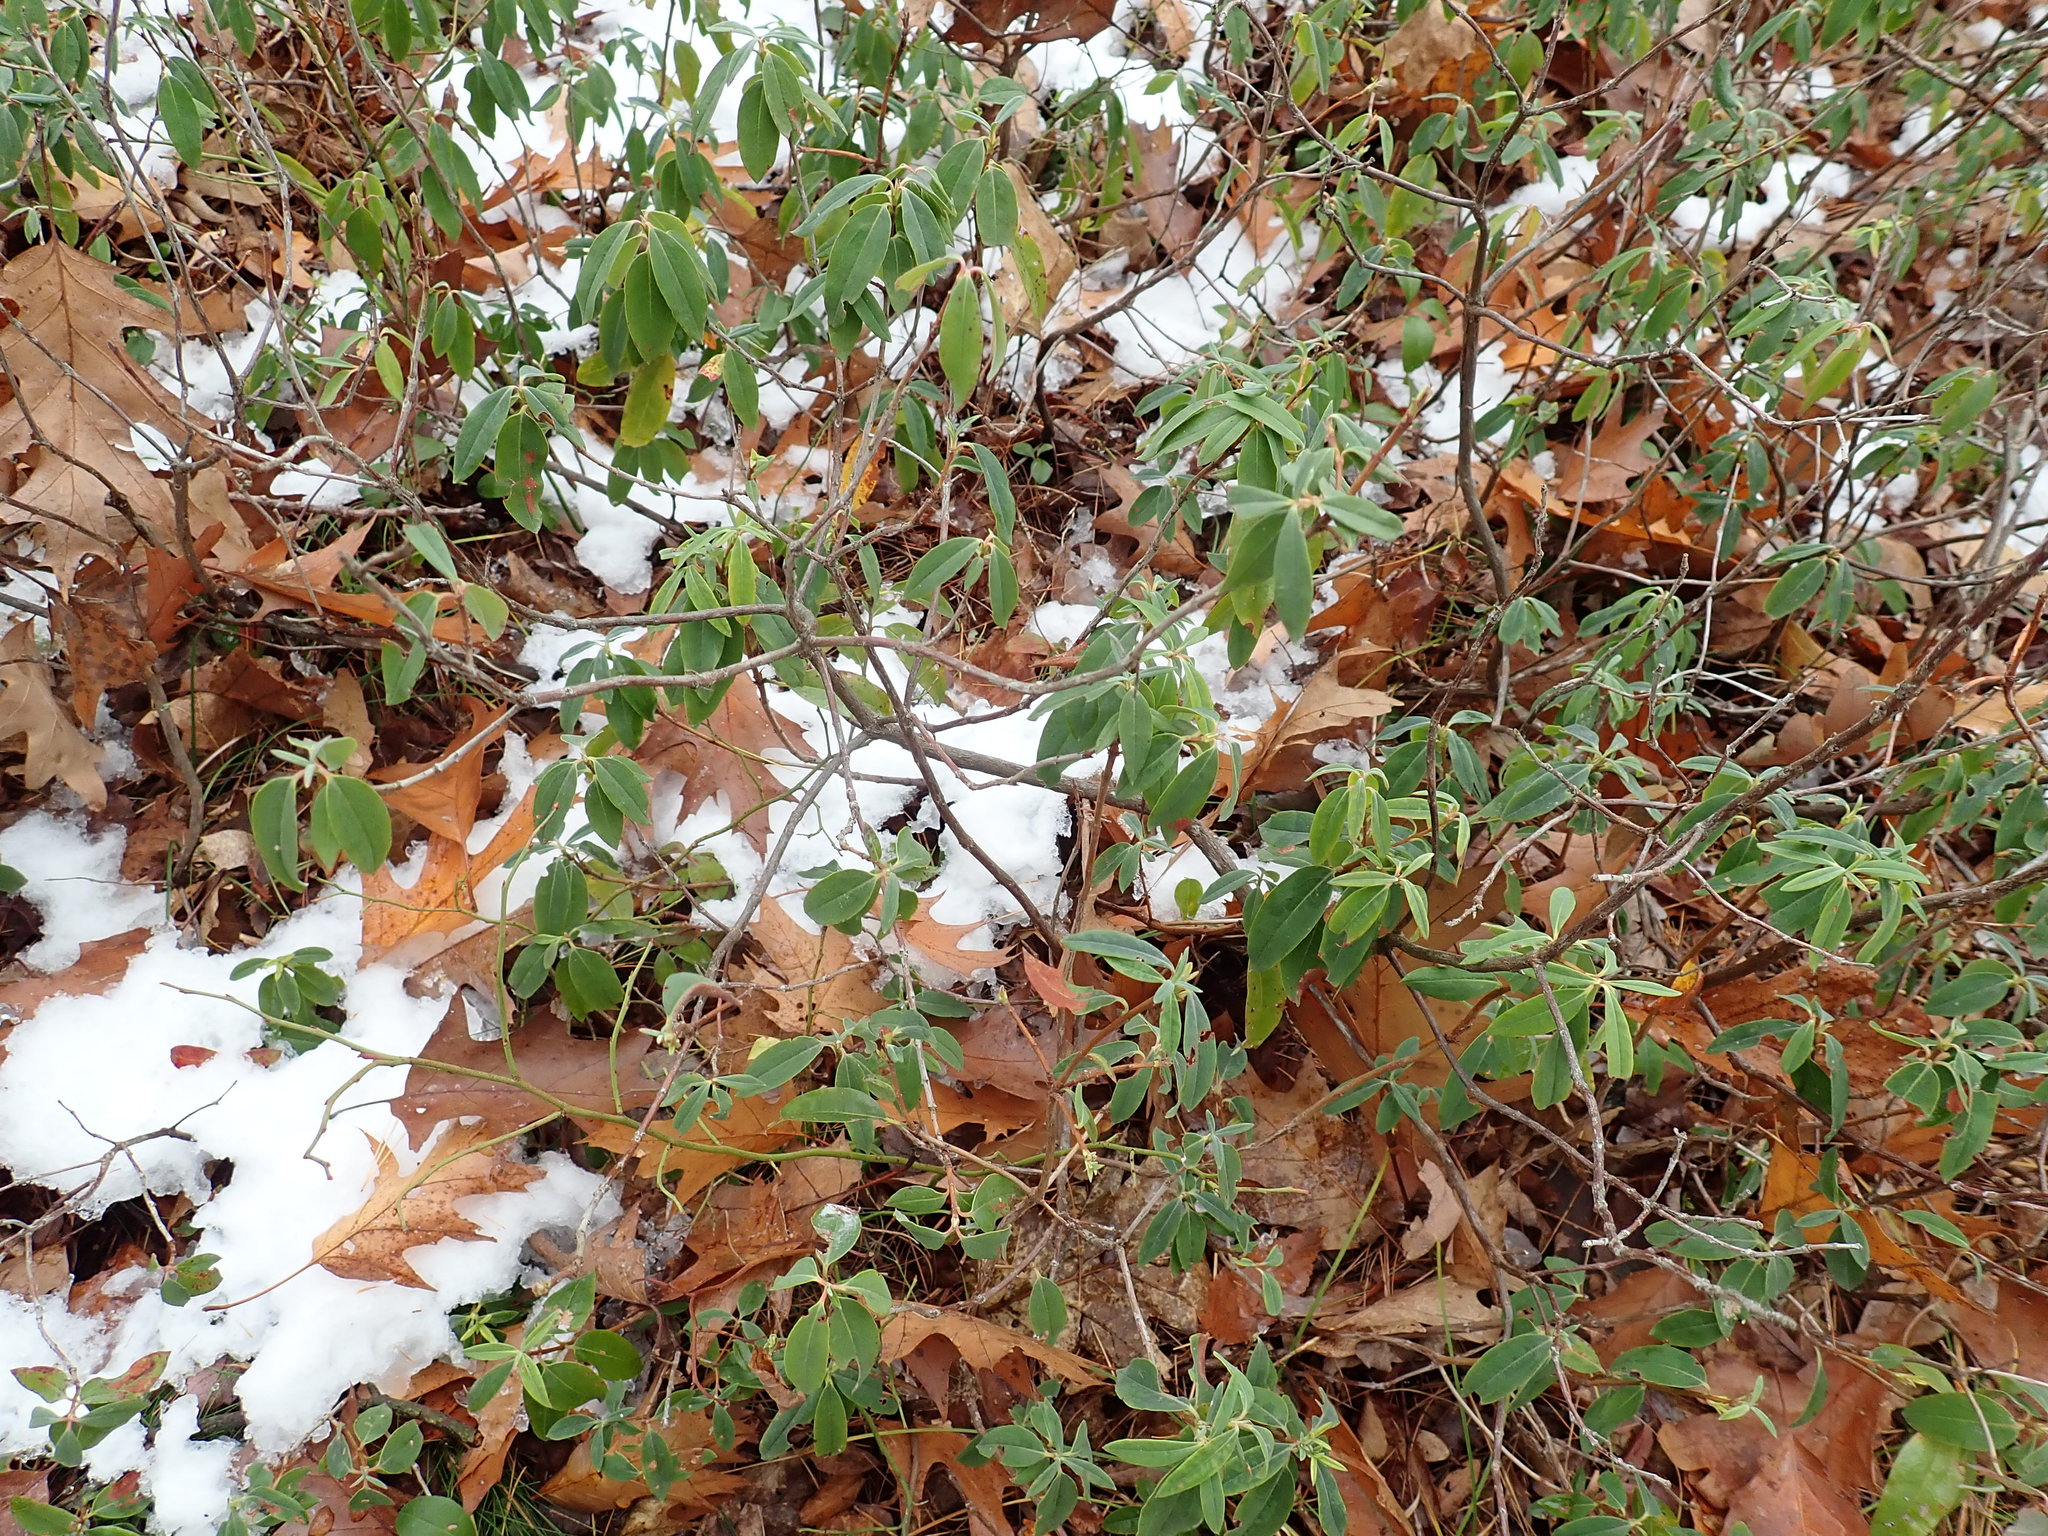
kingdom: Plantae
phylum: Tracheophyta
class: Magnoliopsida
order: Ericales
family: Ericaceae
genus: Kalmia
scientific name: Kalmia angustifolia
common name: Sheep-laurel
